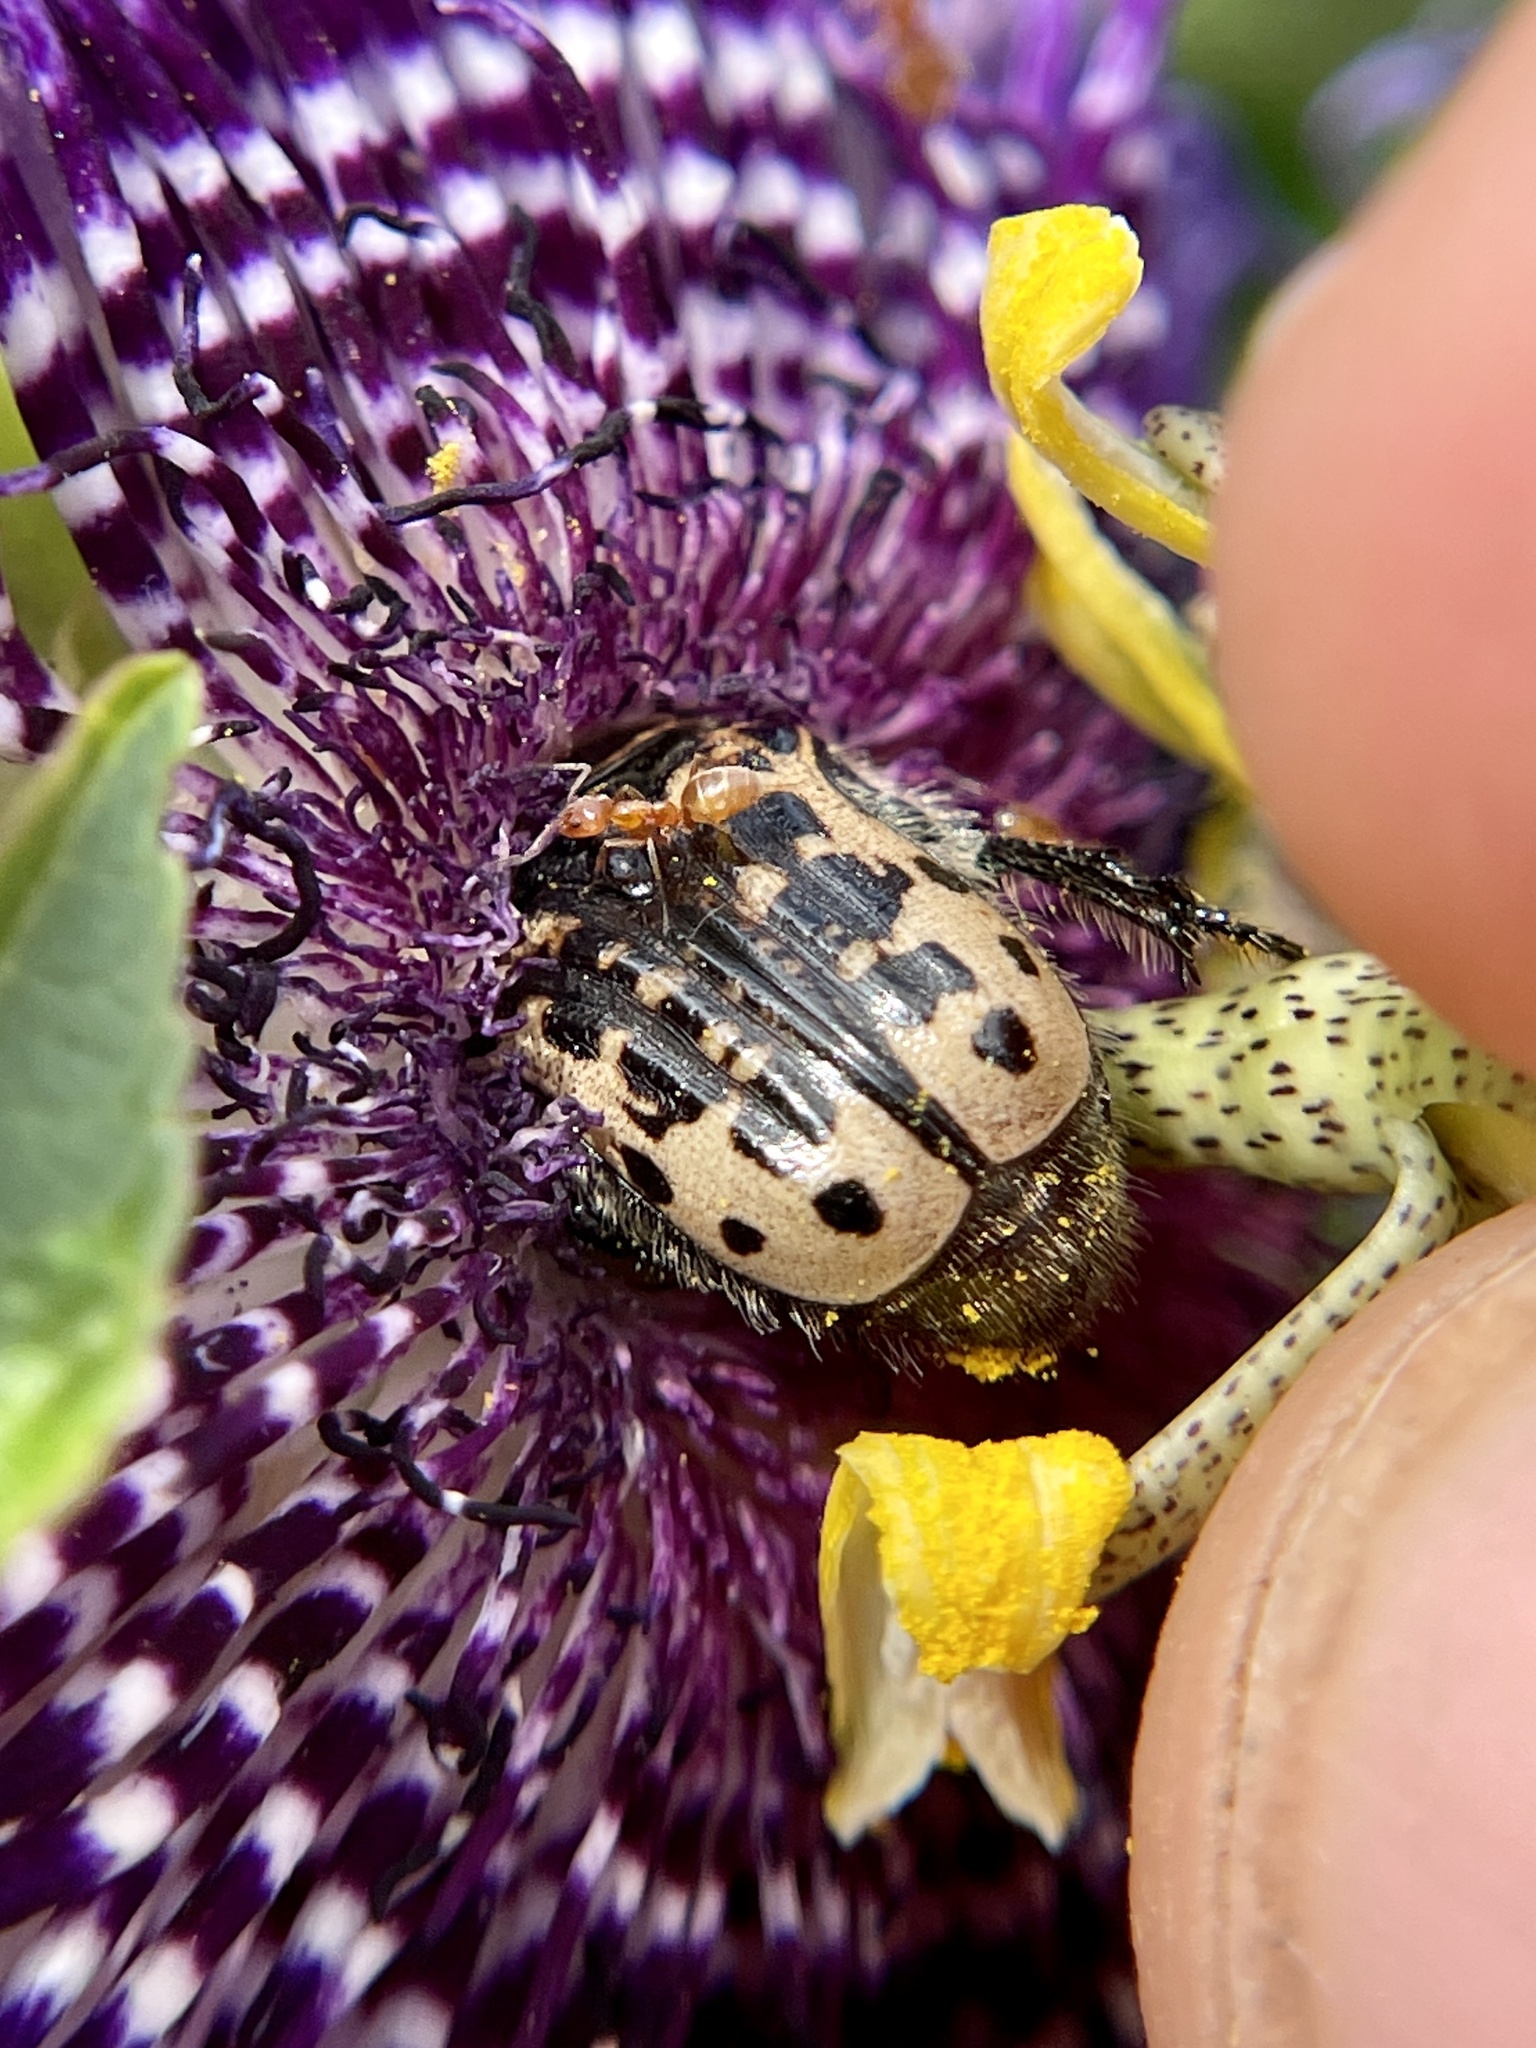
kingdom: Animalia
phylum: Arthropoda
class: Insecta
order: Coleoptera
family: Scarabaeidae
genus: Euphoria
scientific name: Euphoria kernii
